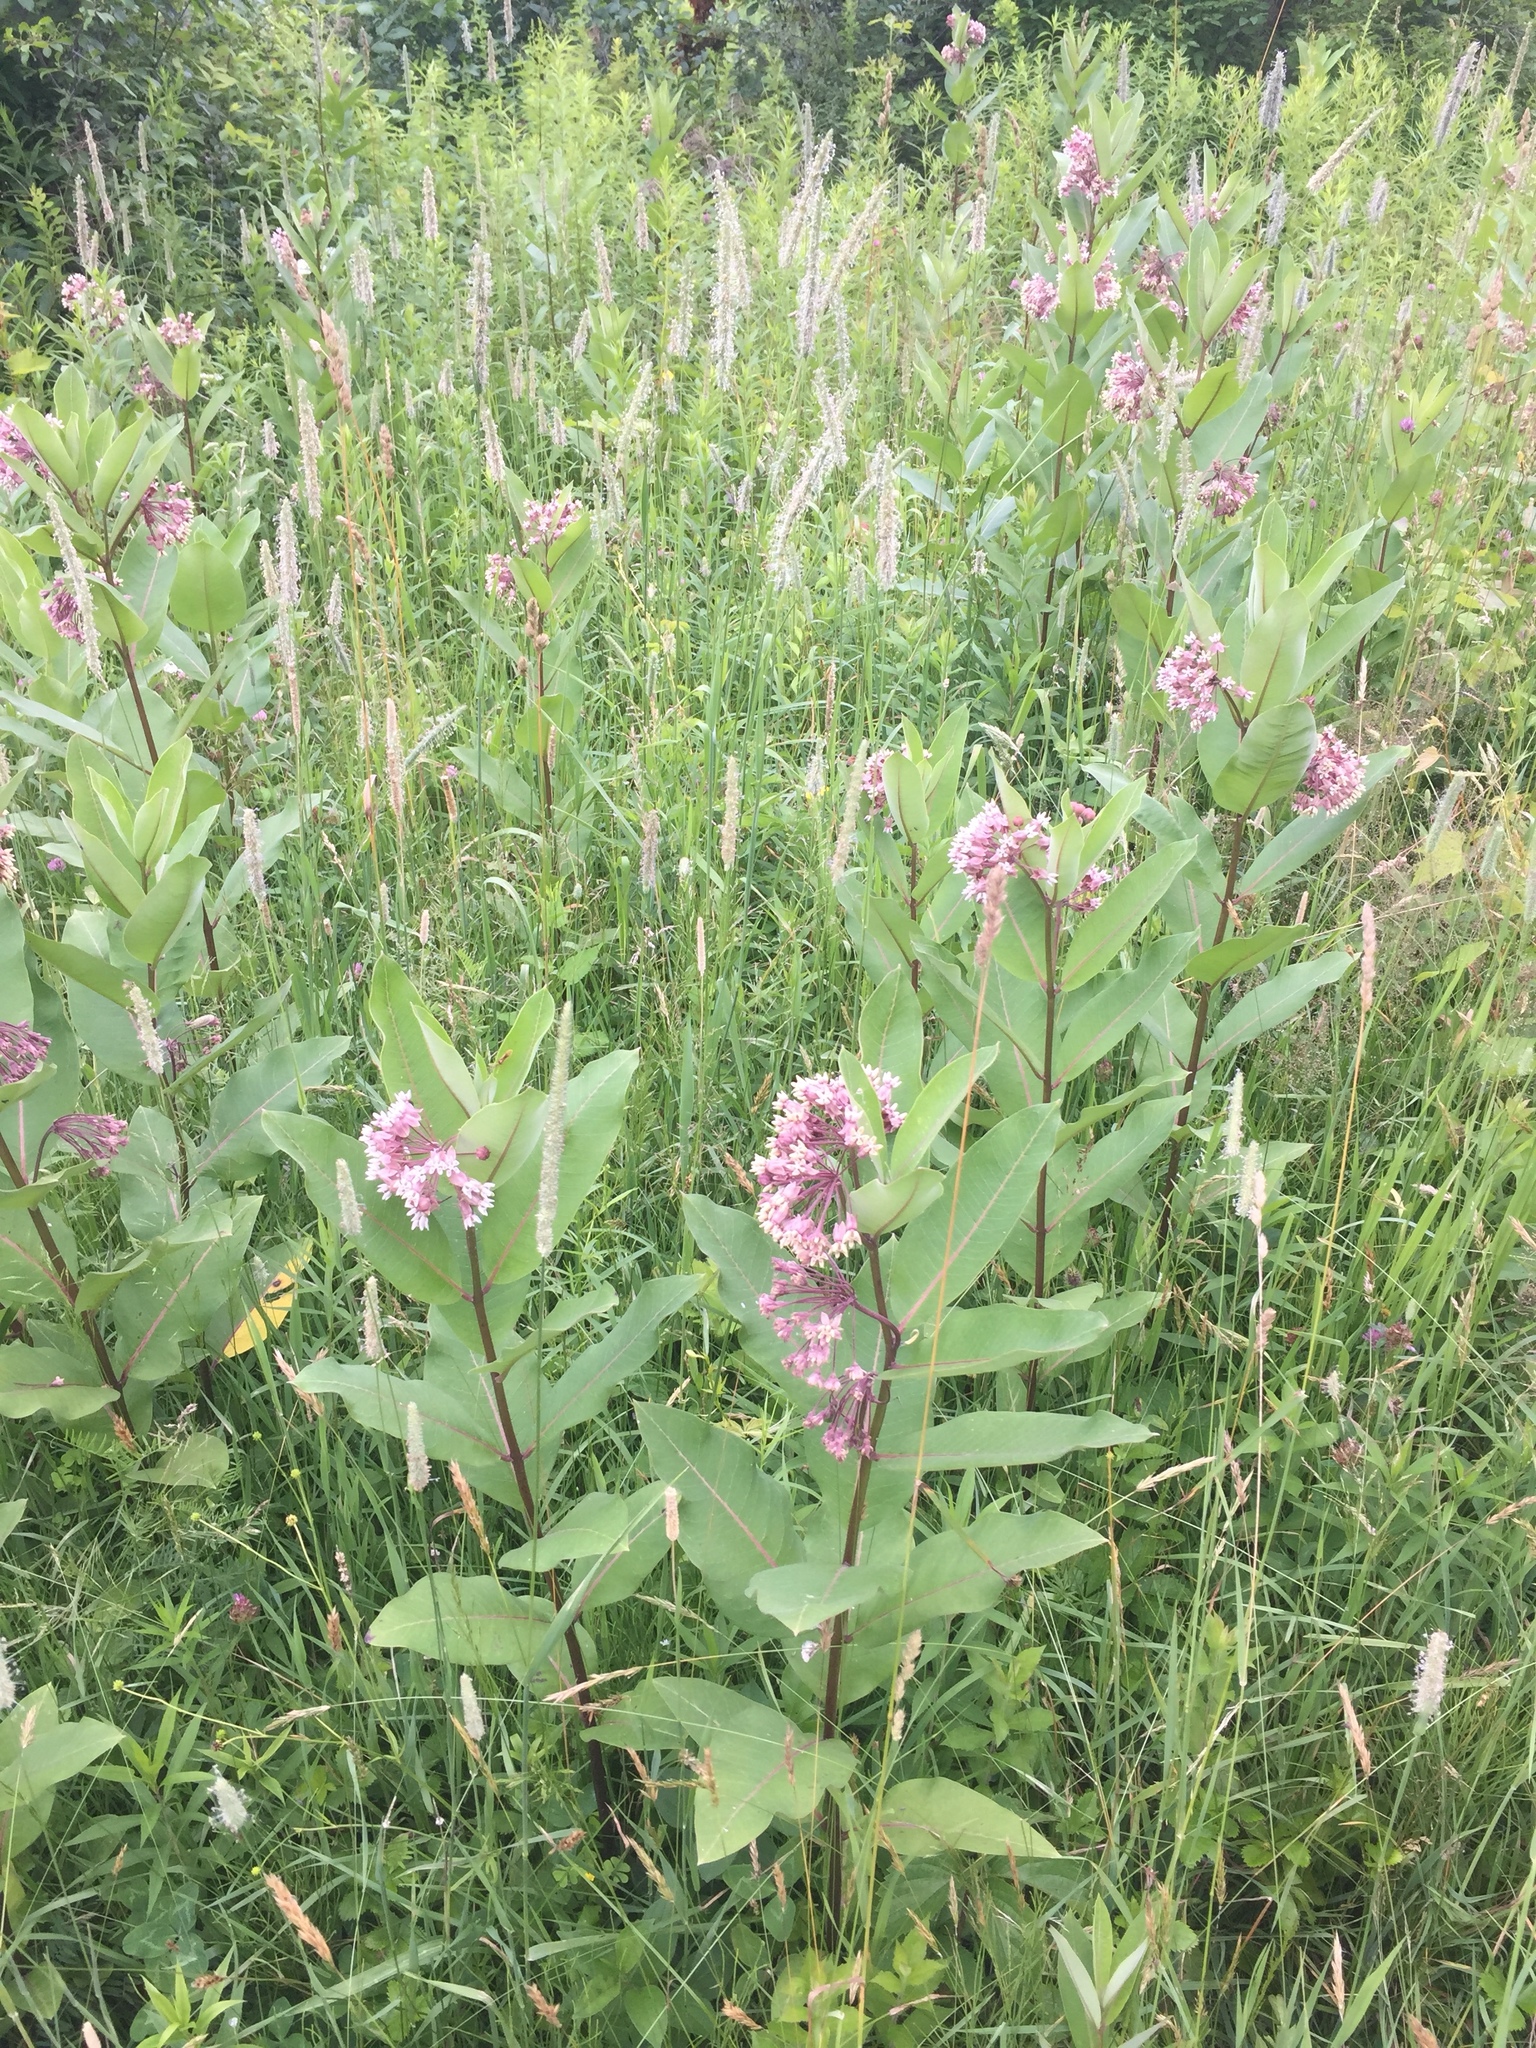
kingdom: Plantae
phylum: Tracheophyta
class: Magnoliopsida
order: Gentianales
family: Apocynaceae
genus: Asclepias
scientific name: Asclepias syriaca
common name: Common milkweed
